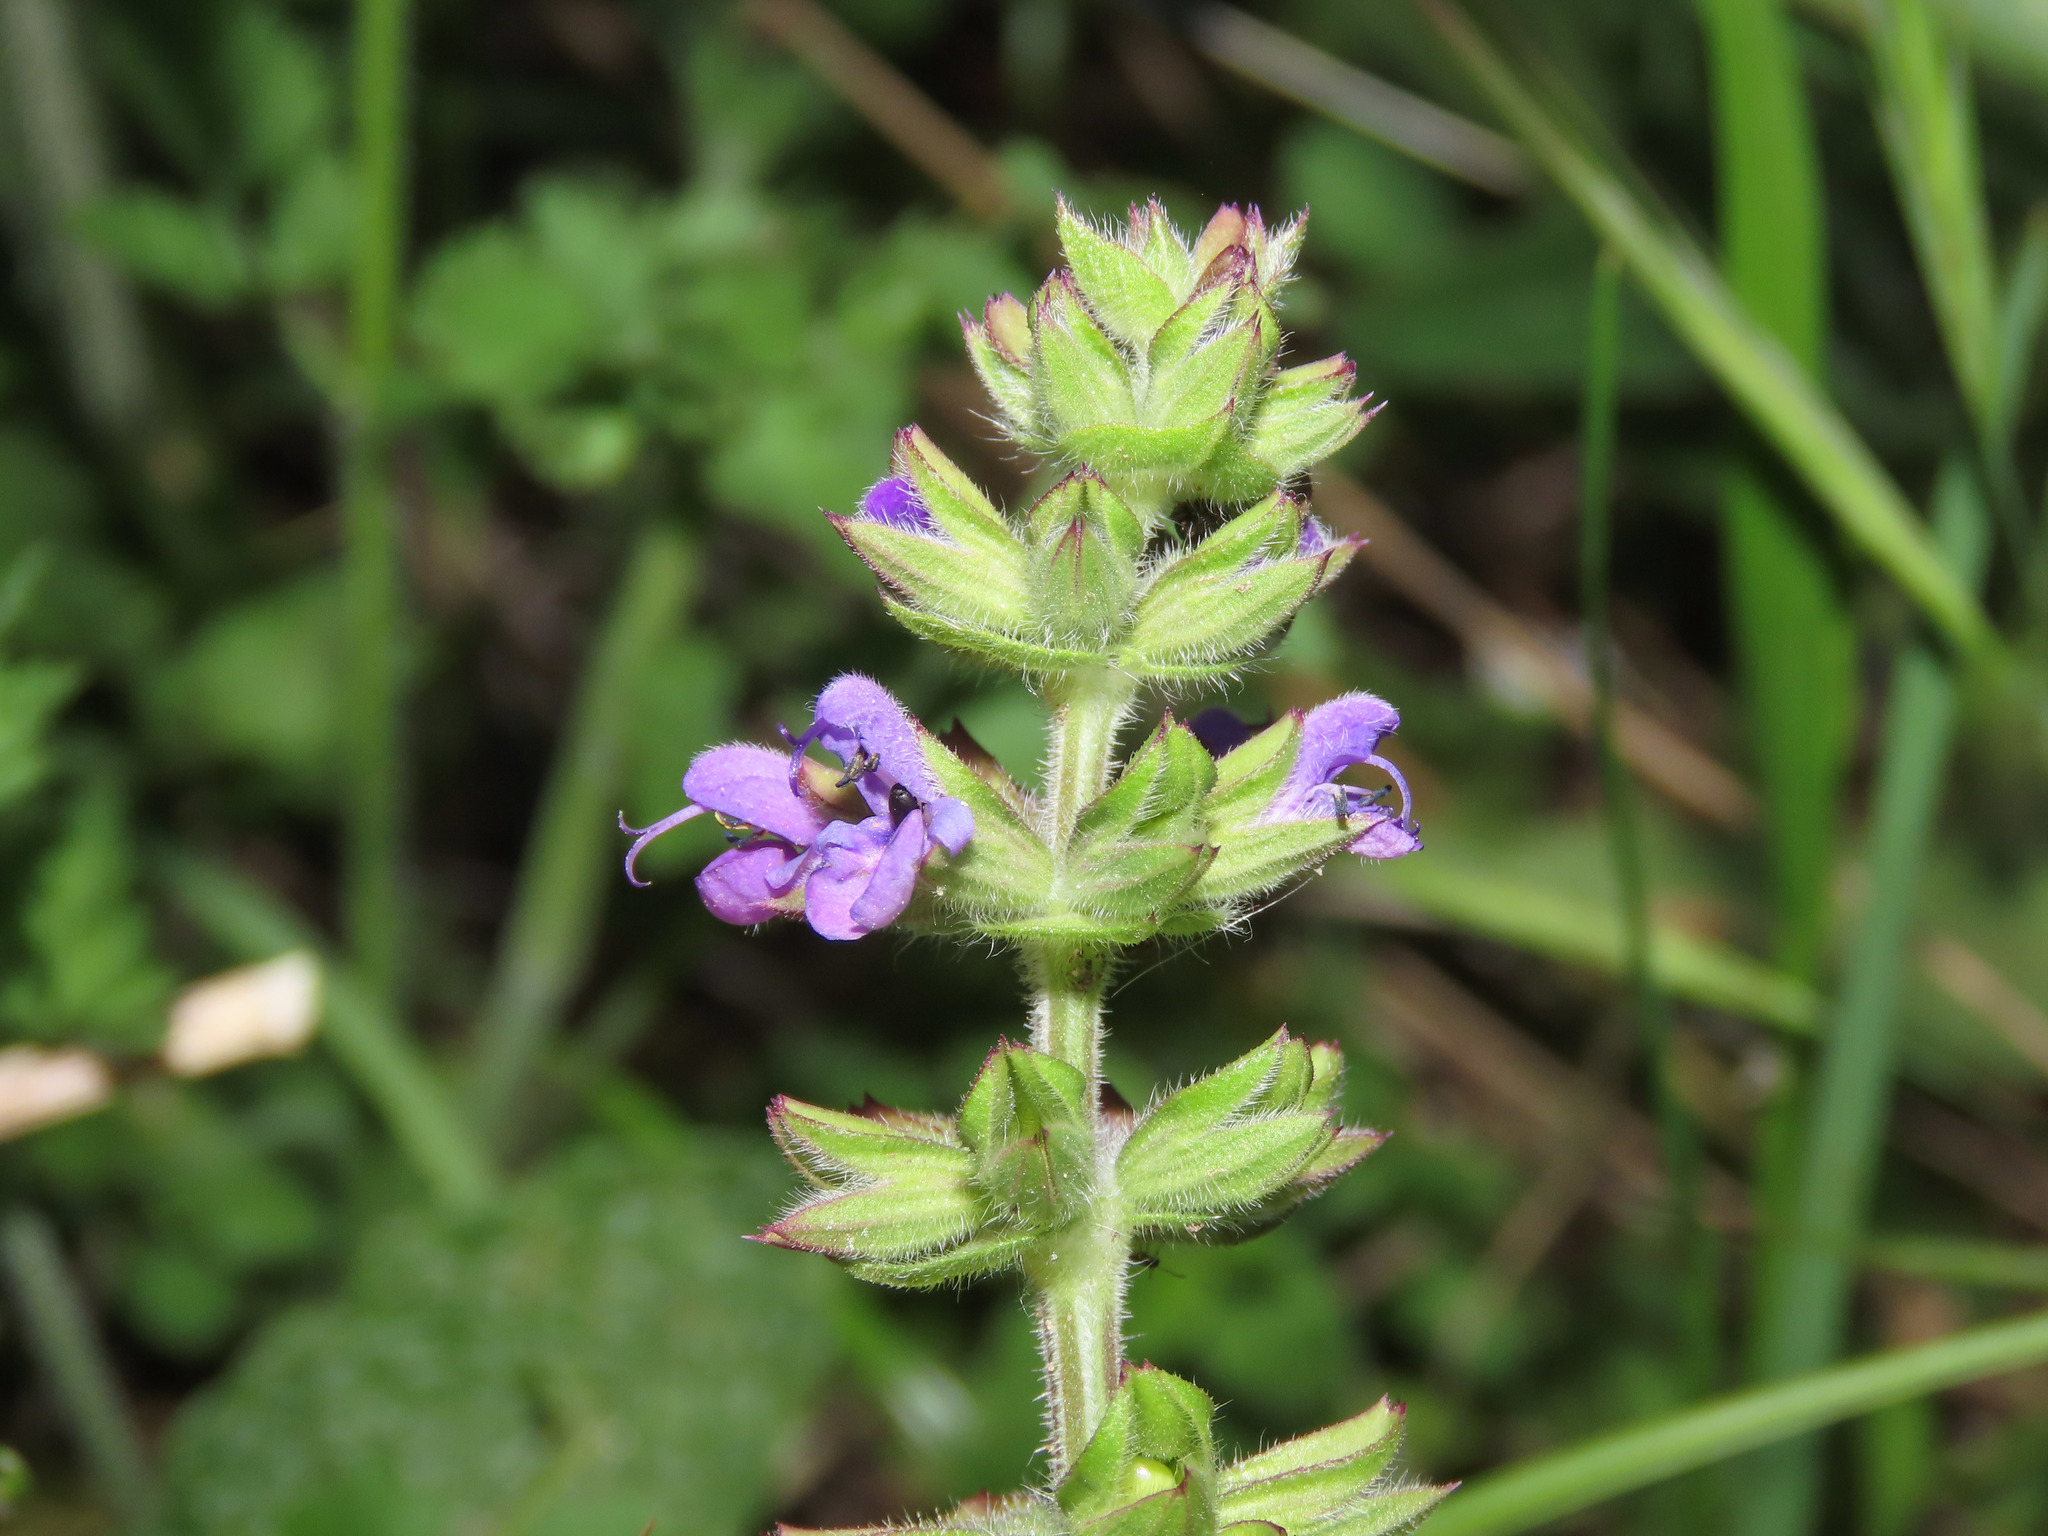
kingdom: Plantae
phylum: Tracheophyta
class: Magnoliopsida
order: Lamiales
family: Lamiaceae
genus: Salvia
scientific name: Salvia verbenaca
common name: Wild clary
